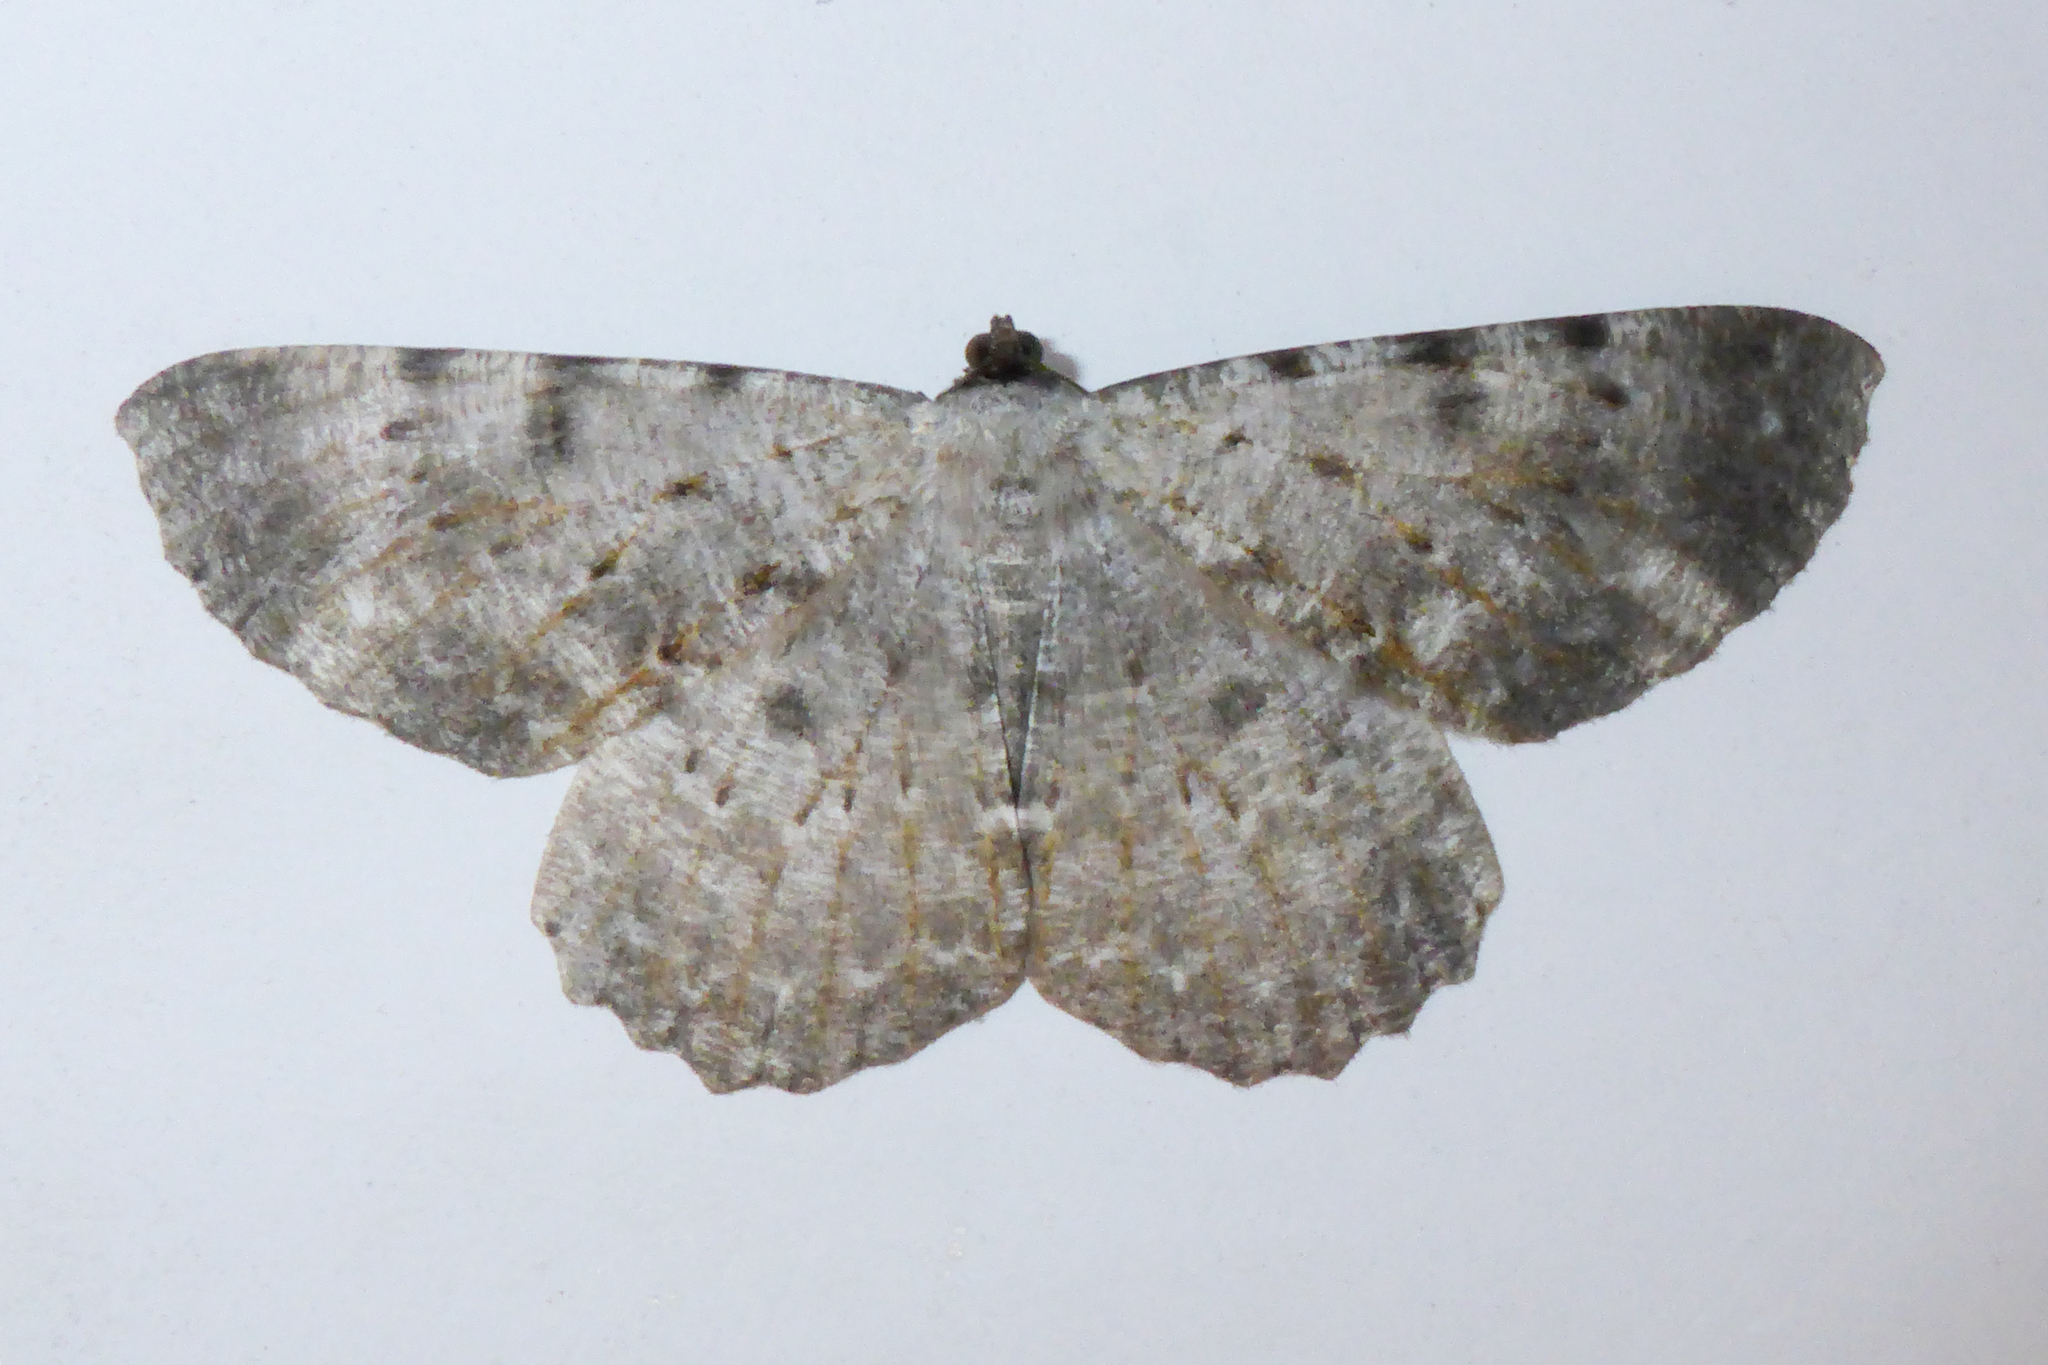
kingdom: Animalia
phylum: Arthropoda
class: Insecta
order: Lepidoptera
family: Geometridae
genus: Gnophos
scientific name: Gnophos albidior
